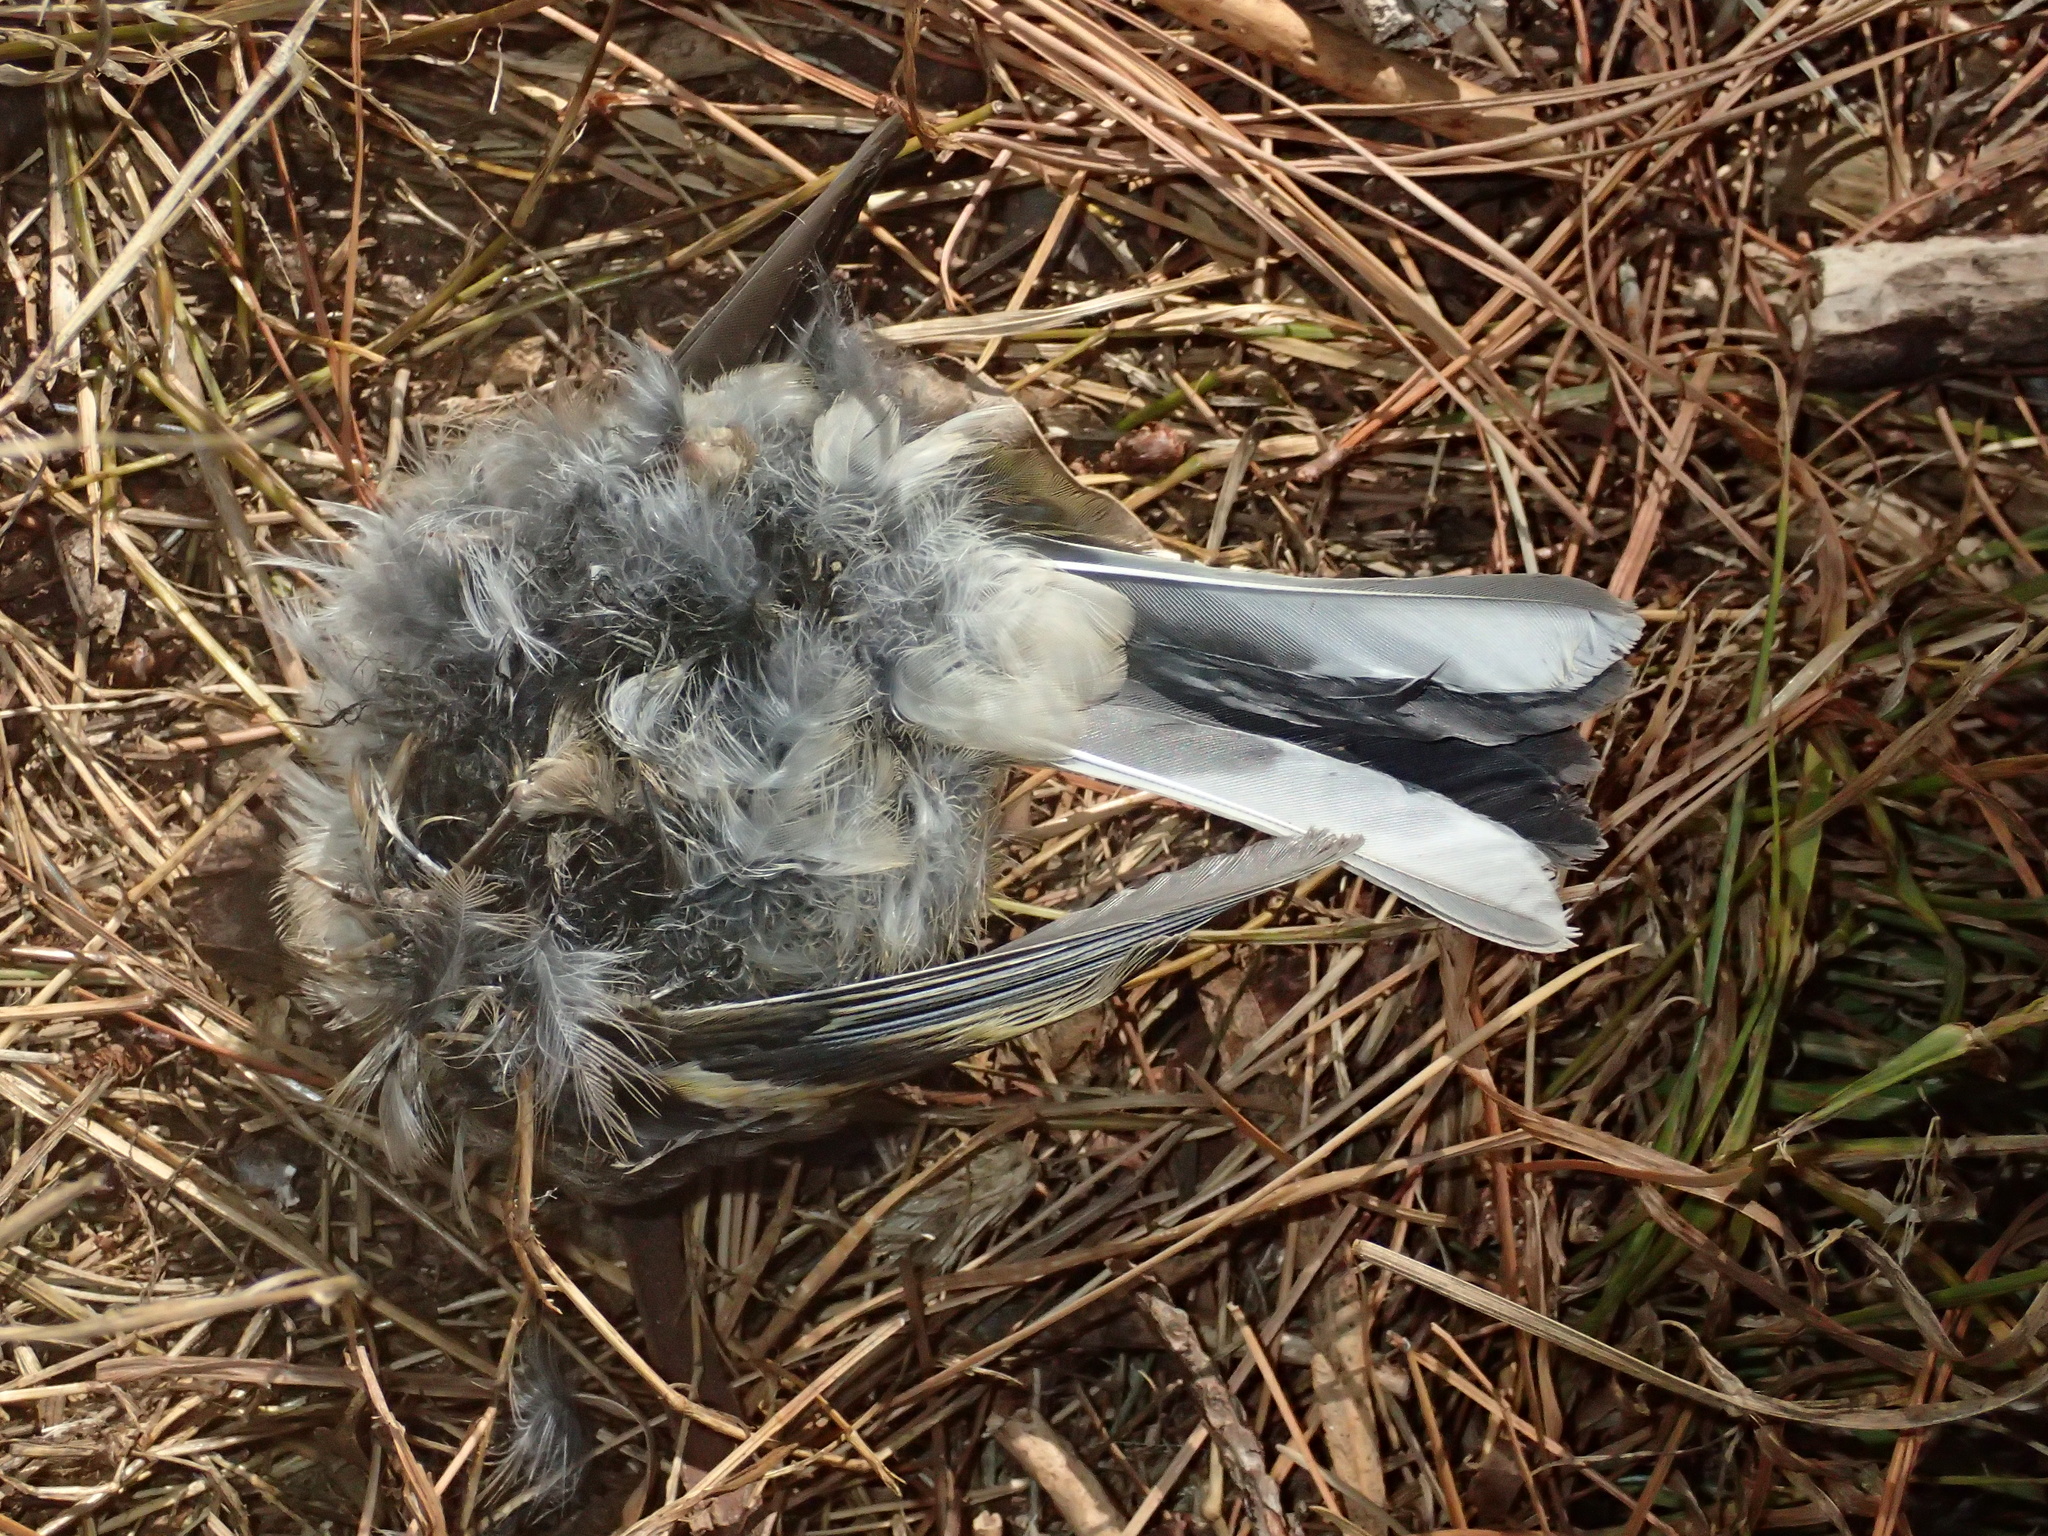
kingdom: Animalia
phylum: Chordata
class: Aves
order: Passeriformes
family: Fringillidae
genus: Fringilla
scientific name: Fringilla coelebs
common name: Common chaffinch
